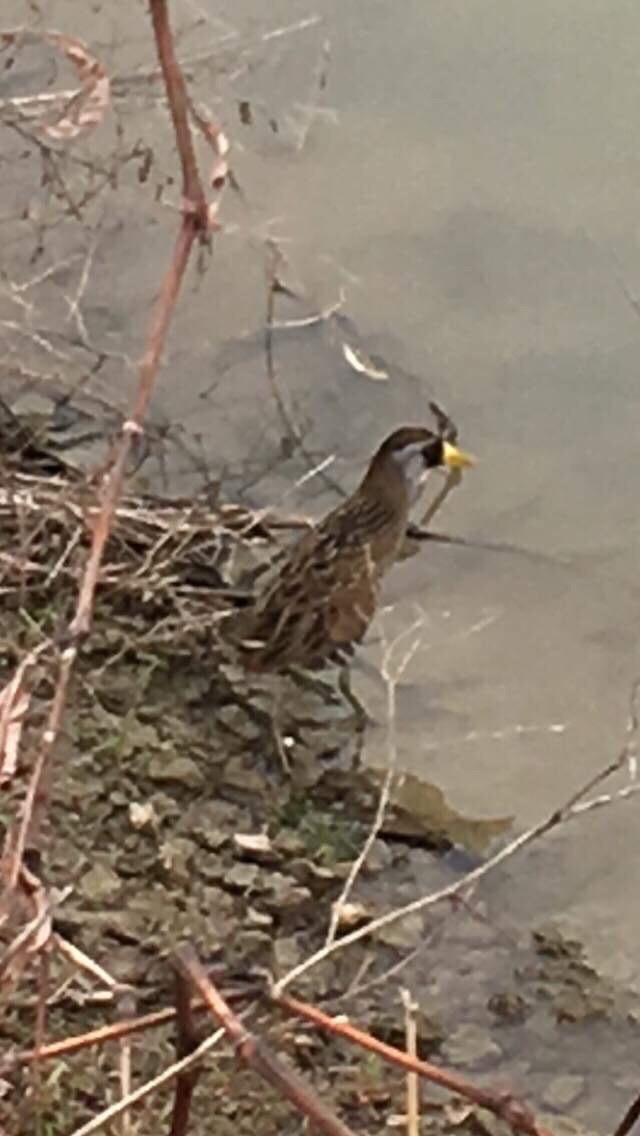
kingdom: Animalia
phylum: Chordata
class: Aves
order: Gruiformes
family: Rallidae
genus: Porzana
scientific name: Porzana carolina
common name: Sora
